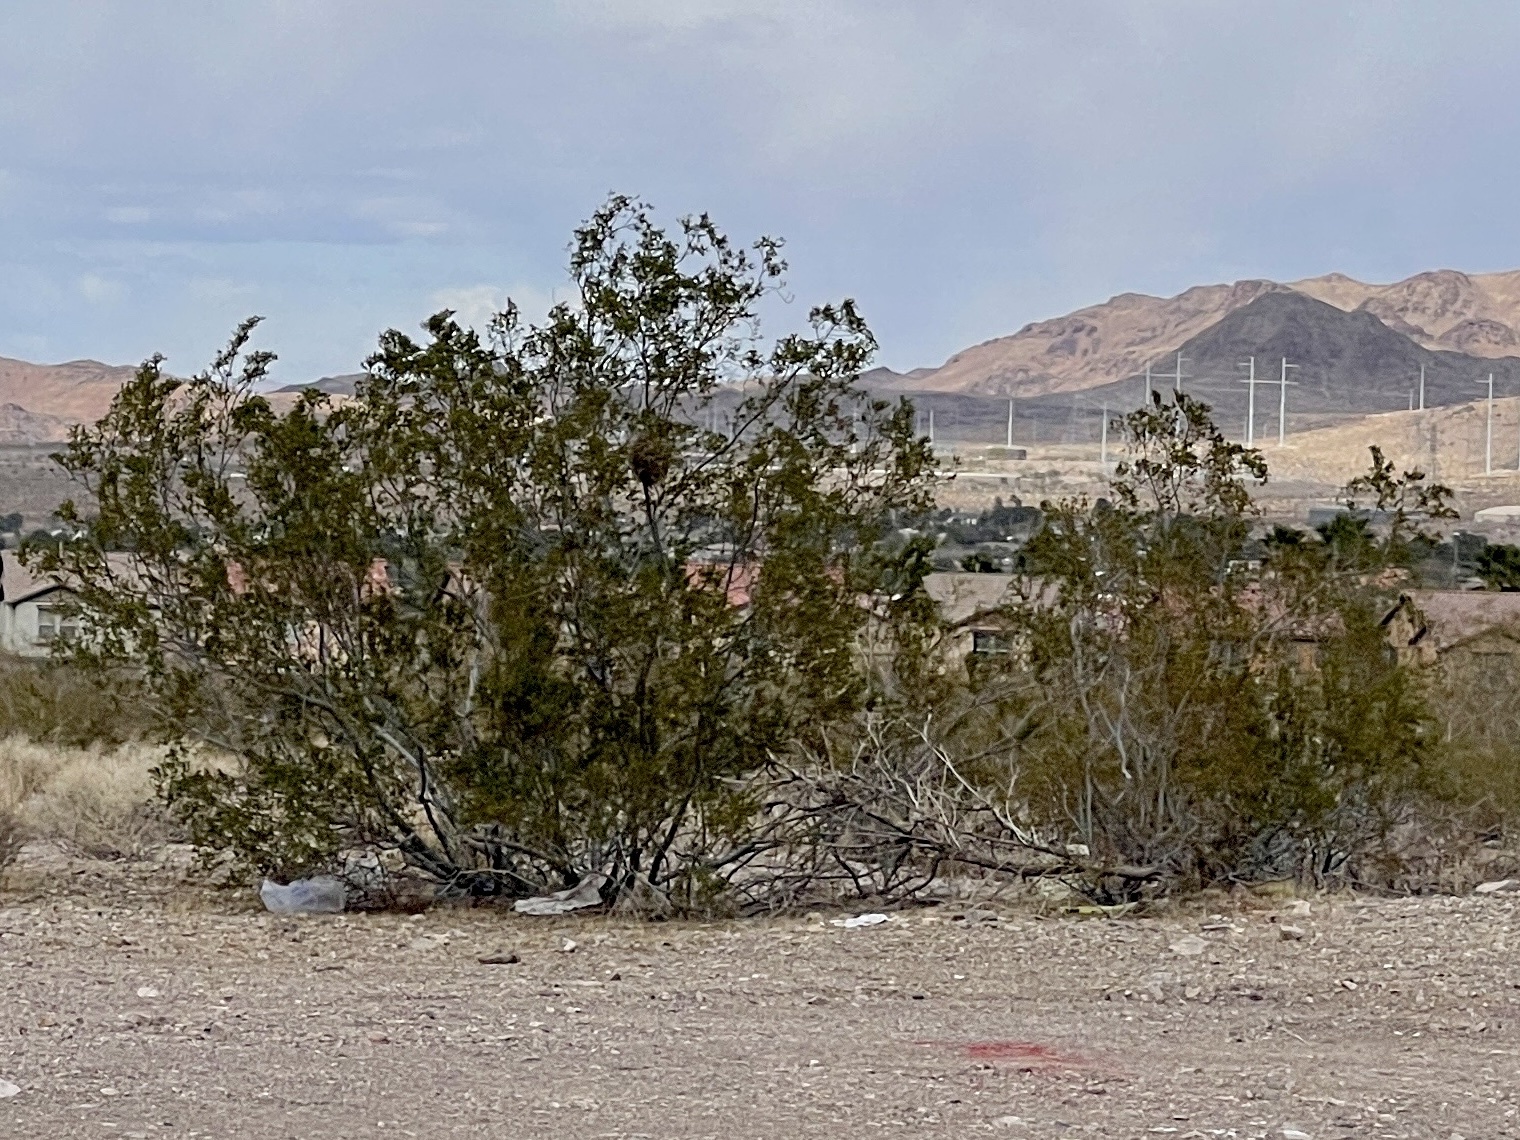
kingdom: Plantae
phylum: Tracheophyta
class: Magnoliopsida
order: Zygophyllales
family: Zygophyllaceae
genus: Larrea
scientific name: Larrea tridentata
